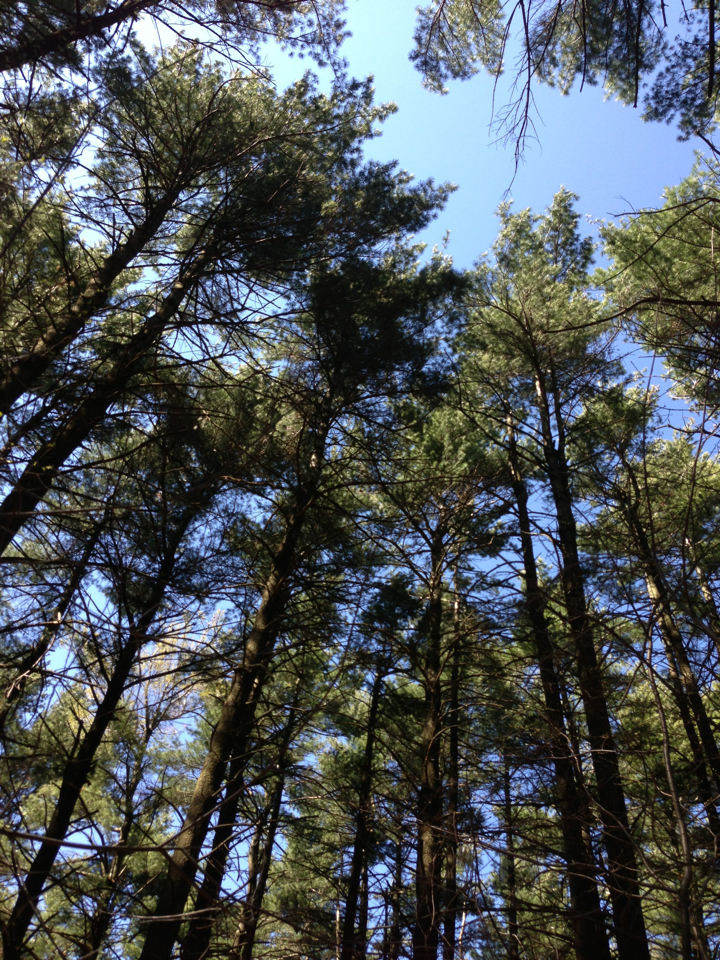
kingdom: Plantae
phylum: Tracheophyta
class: Pinopsida
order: Pinales
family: Pinaceae
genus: Pinus
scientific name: Pinus strobus
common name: Weymouth pine
